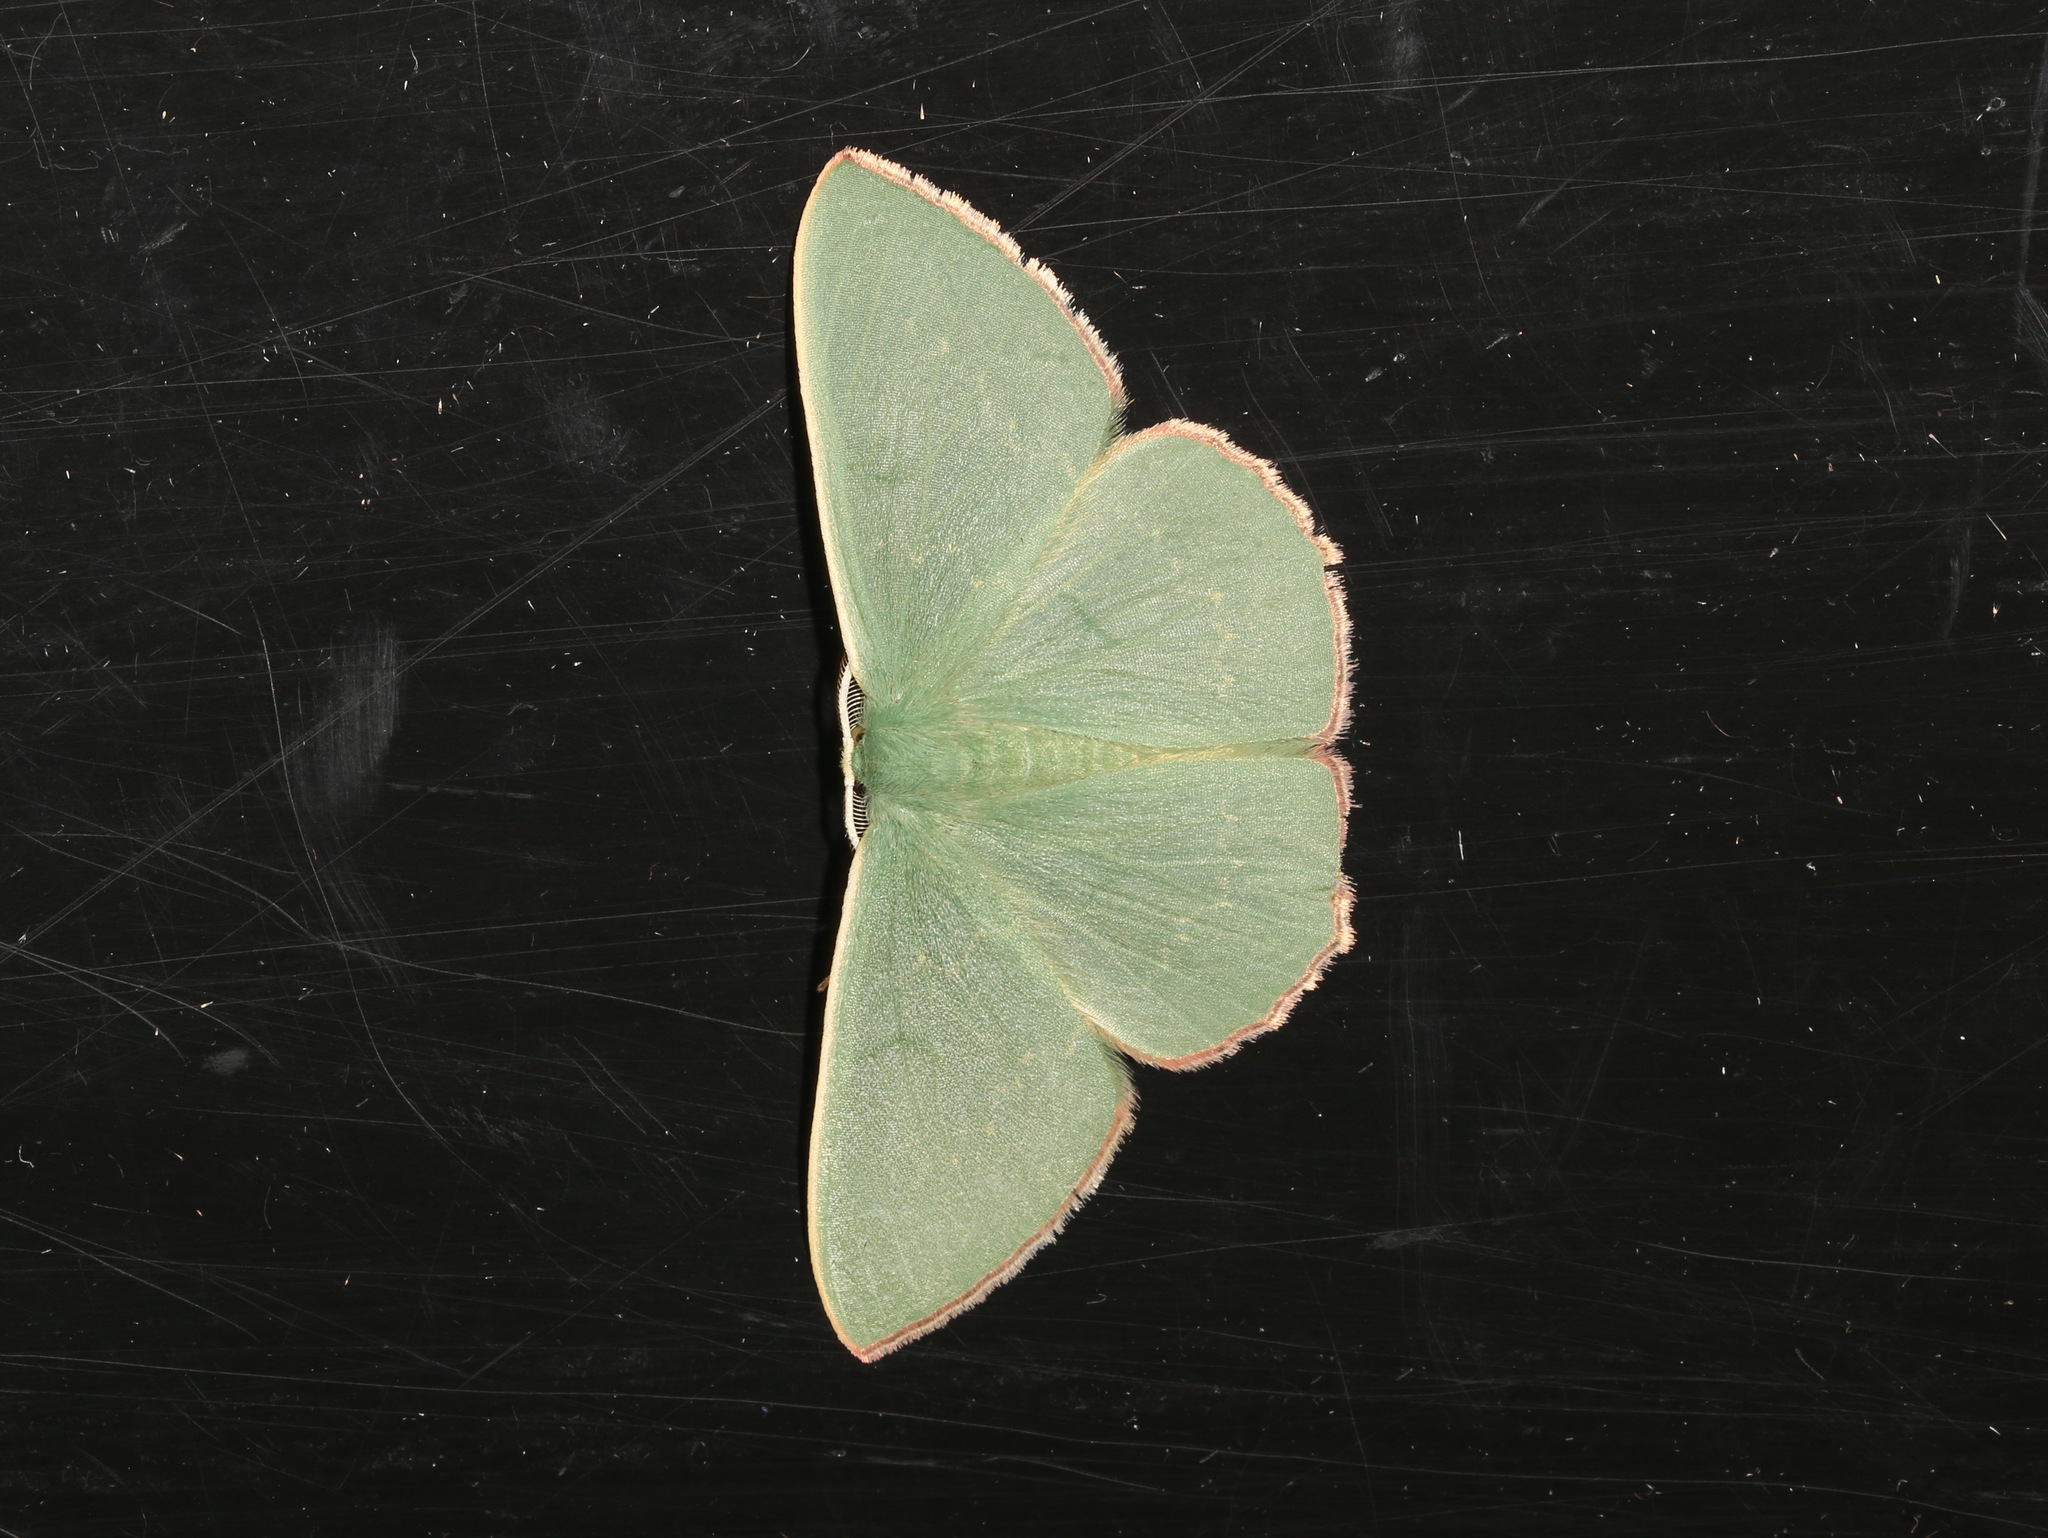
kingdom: Animalia
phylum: Arthropoda
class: Insecta
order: Lepidoptera
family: Geometridae
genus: Prasinocyma
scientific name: Prasinocyma semicrocea
